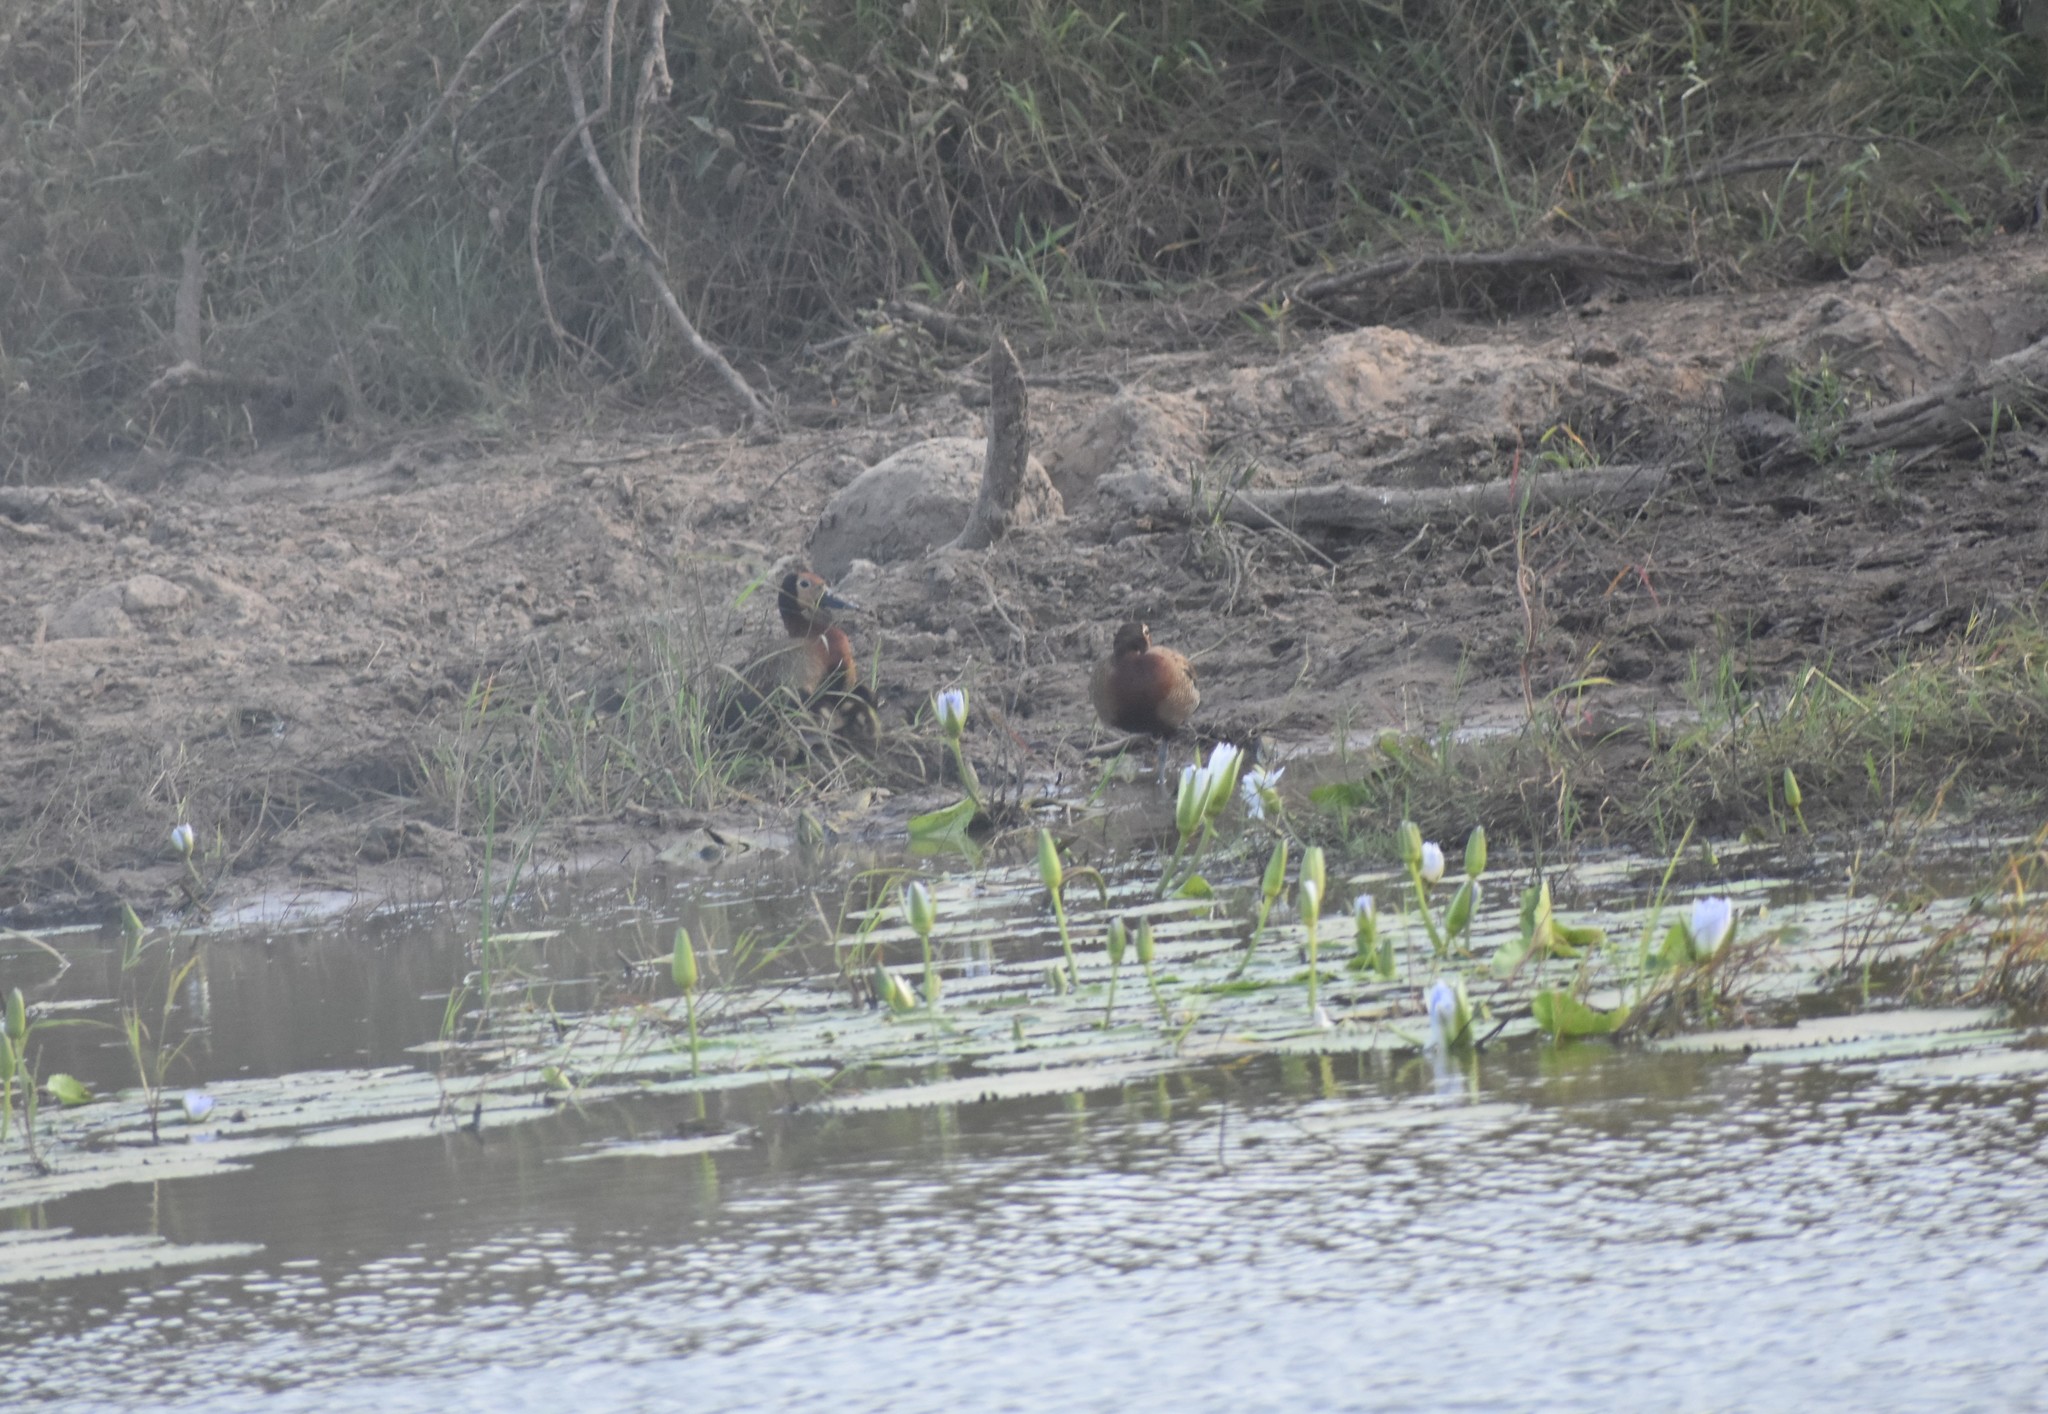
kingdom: Animalia
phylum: Chordata
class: Aves
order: Anseriformes
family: Anatidae
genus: Dendrocygna
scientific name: Dendrocygna viduata
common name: White-faced whistling duck
